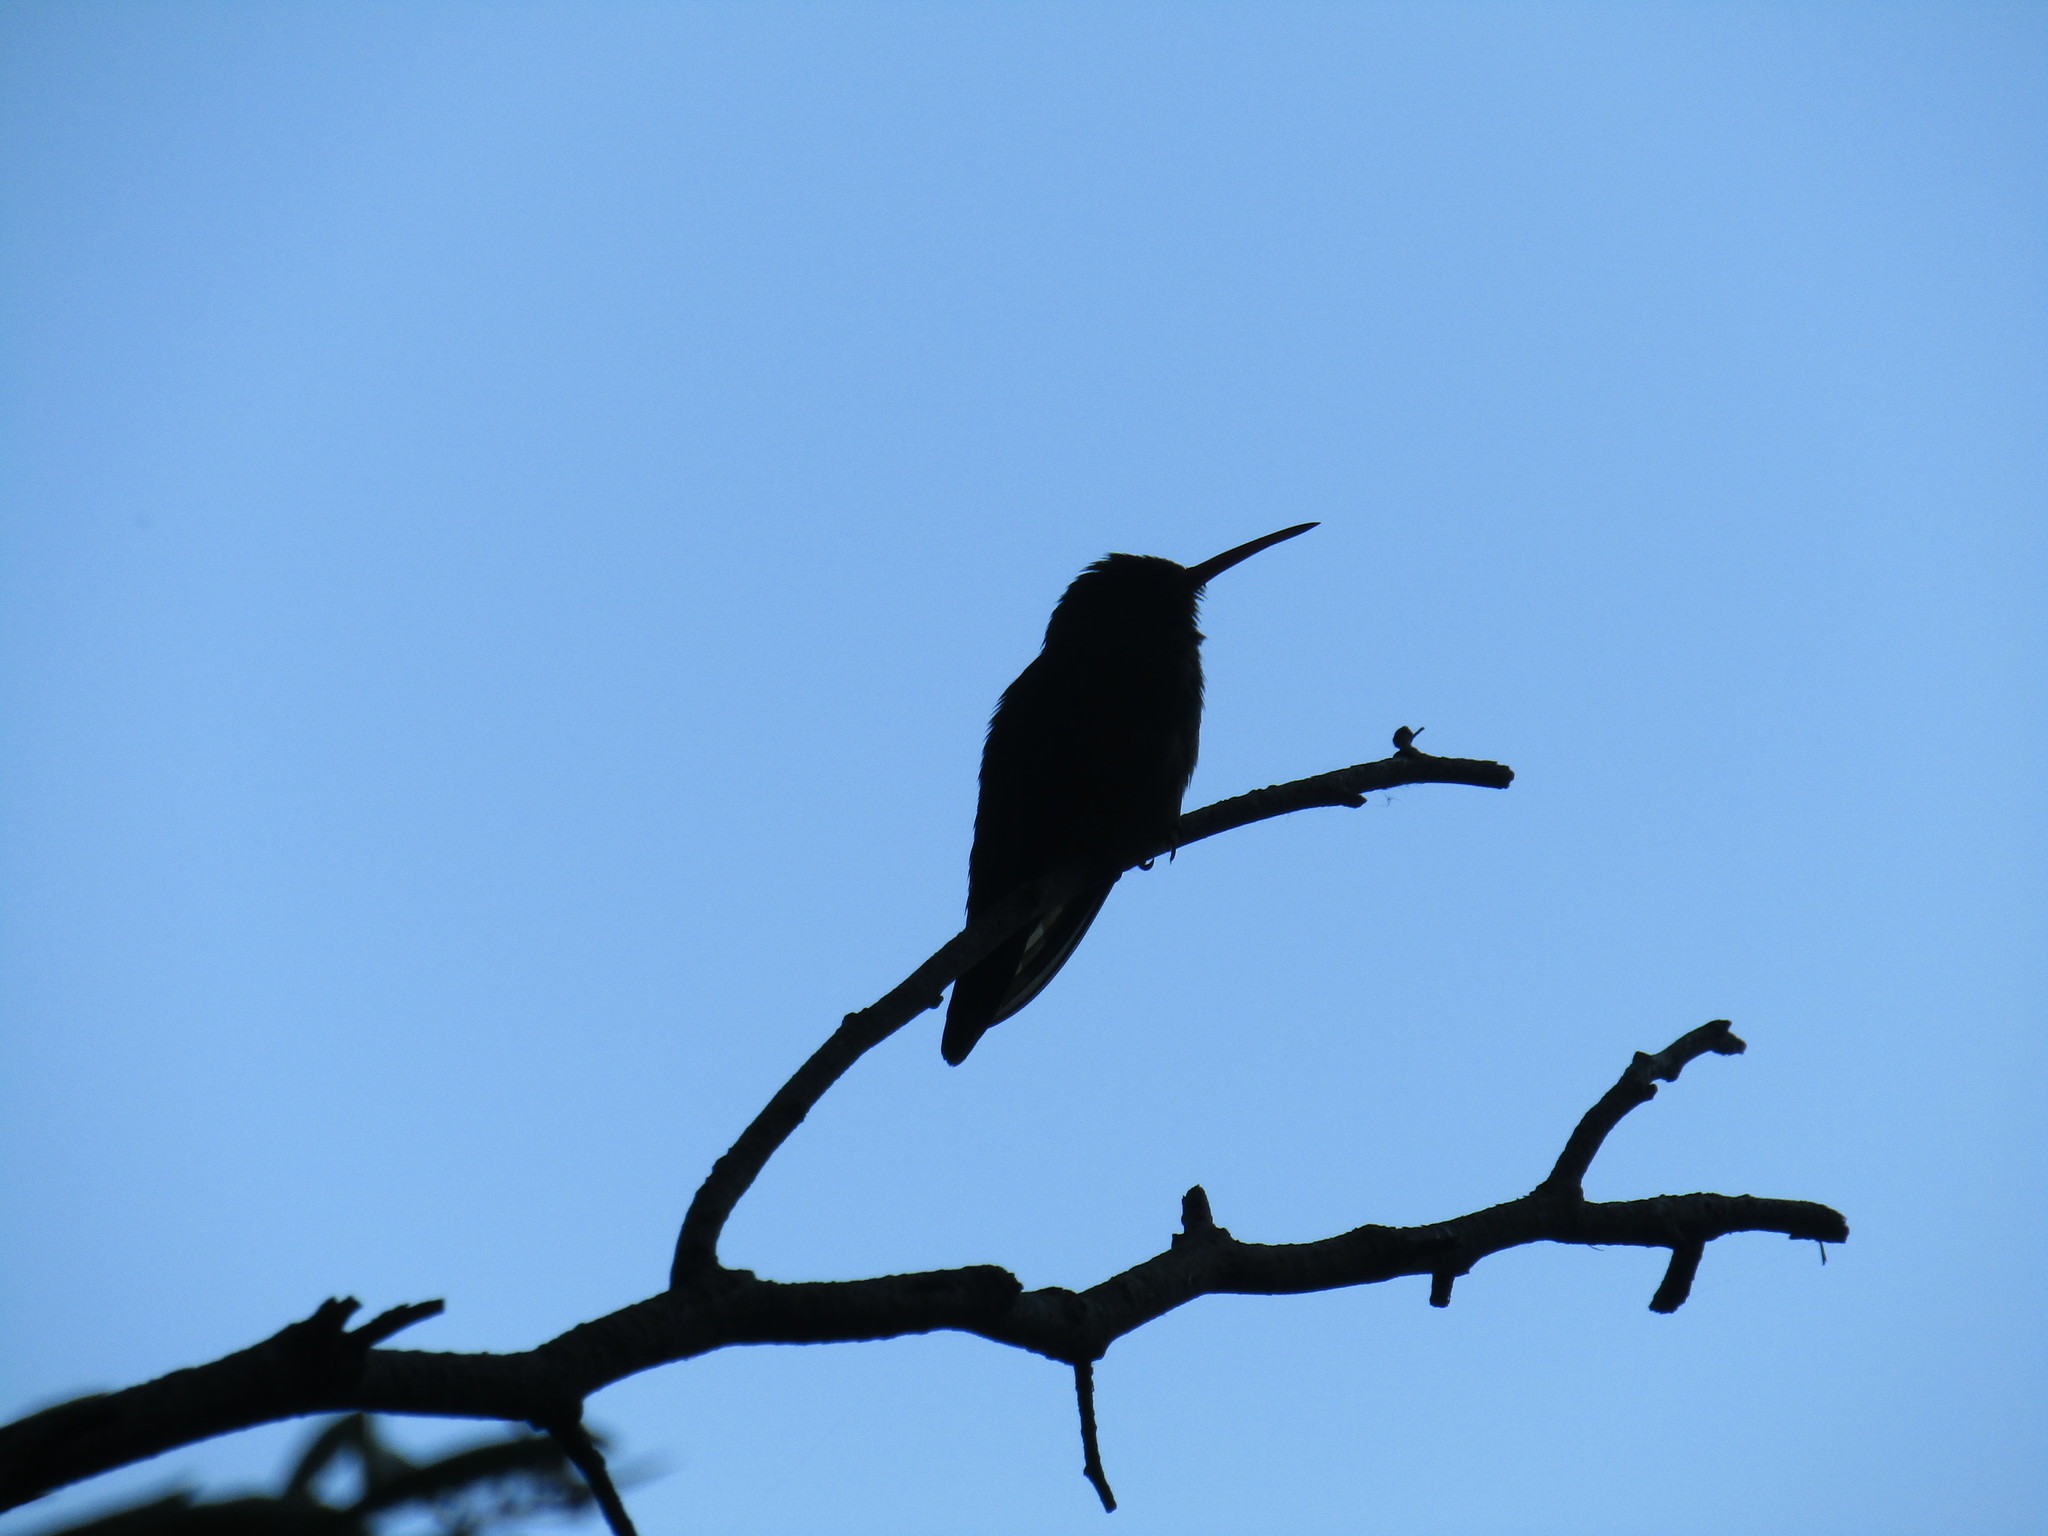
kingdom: Animalia
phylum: Chordata
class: Aves
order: Apodiformes
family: Trochilidae
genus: Hylocharis
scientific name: Hylocharis chrysura
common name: Gilded sapphire
